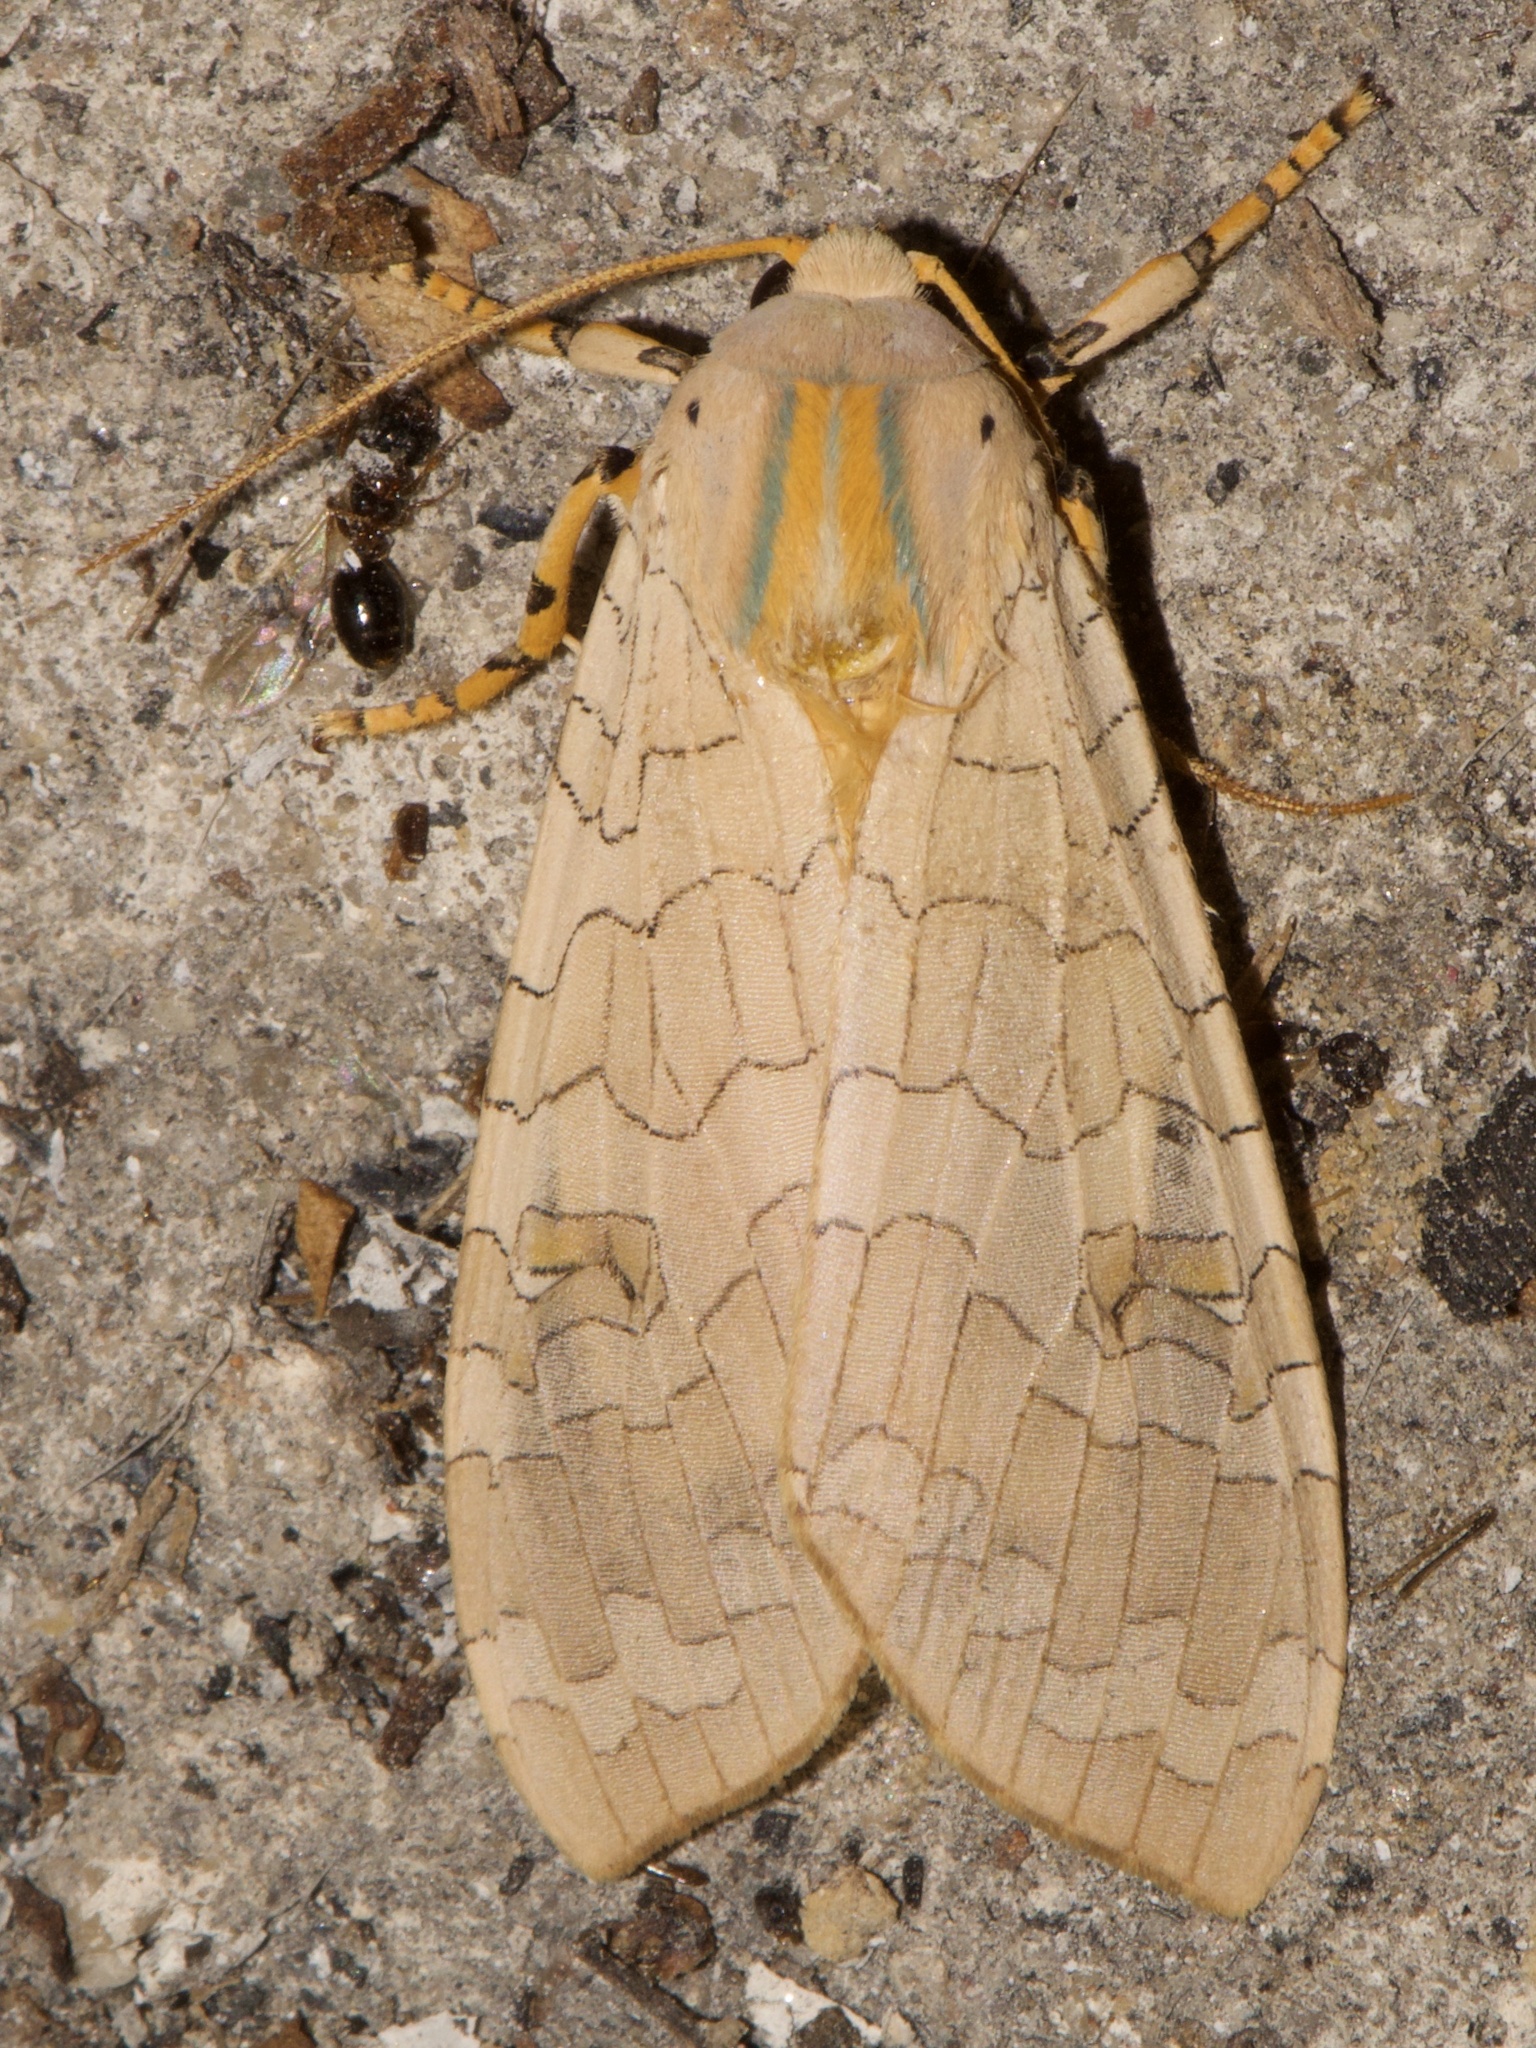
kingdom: Animalia
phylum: Arthropoda
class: Insecta
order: Lepidoptera
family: Erebidae
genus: Halysidota
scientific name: Halysidota
